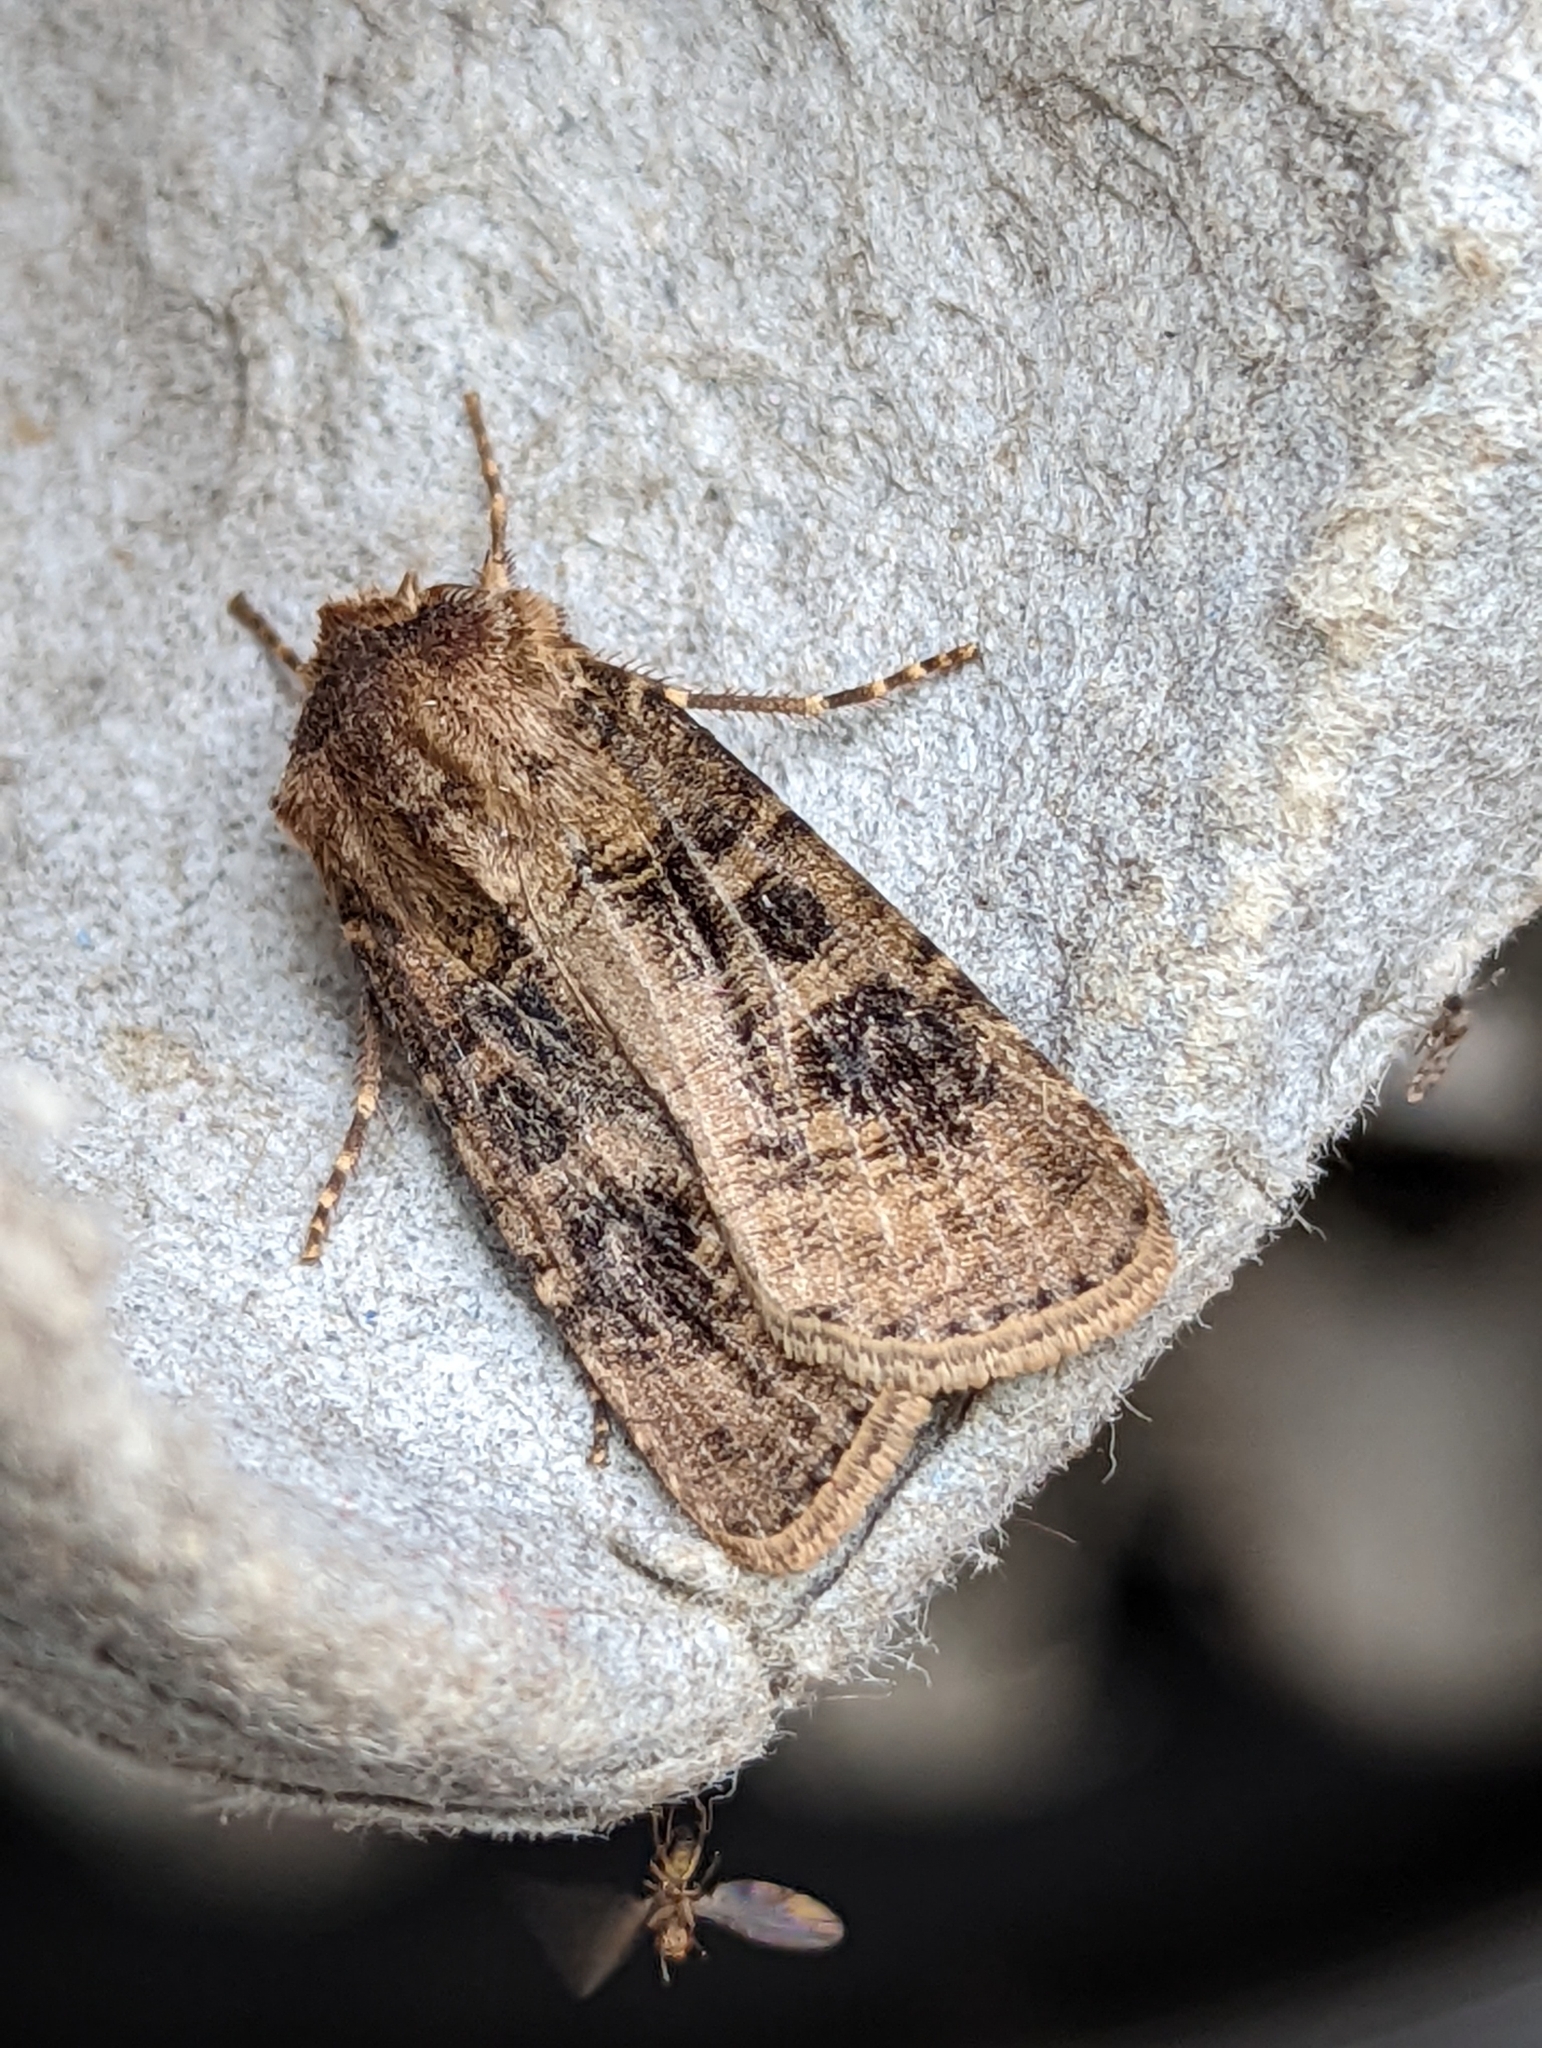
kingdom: Animalia
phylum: Arthropoda
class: Insecta
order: Lepidoptera
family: Noctuidae
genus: Agrotis
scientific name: Agrotis clavis
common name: Heart and club
